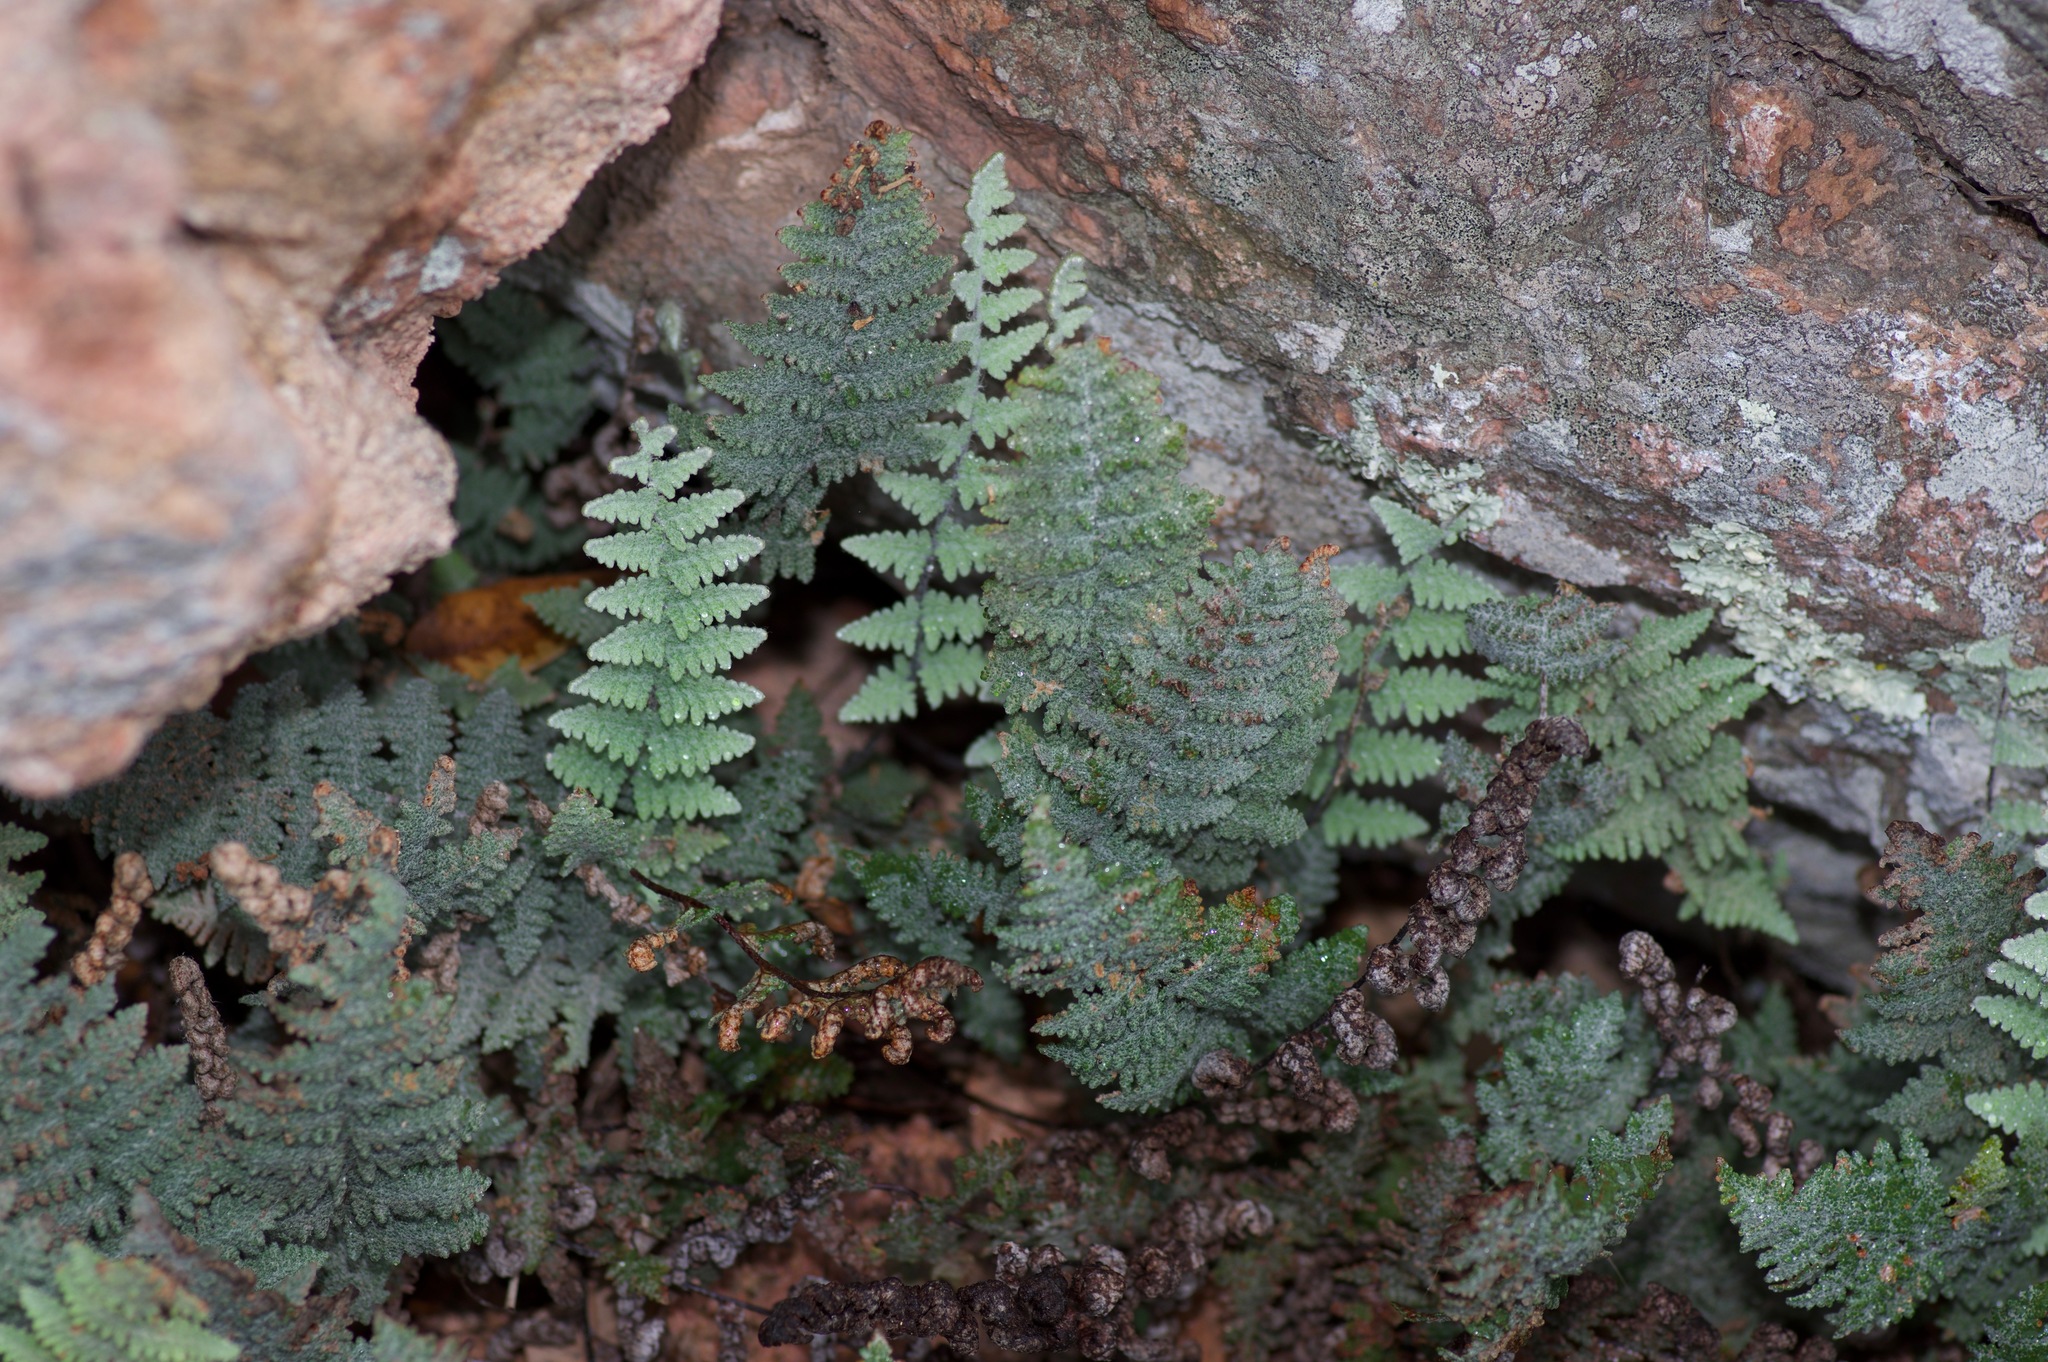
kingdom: Plantae
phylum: Tracheophyta
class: Polypodiopsida
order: Polypodiales
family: Pteridaceae
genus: Myriopteris
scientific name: Myriopteris lindheimeri
